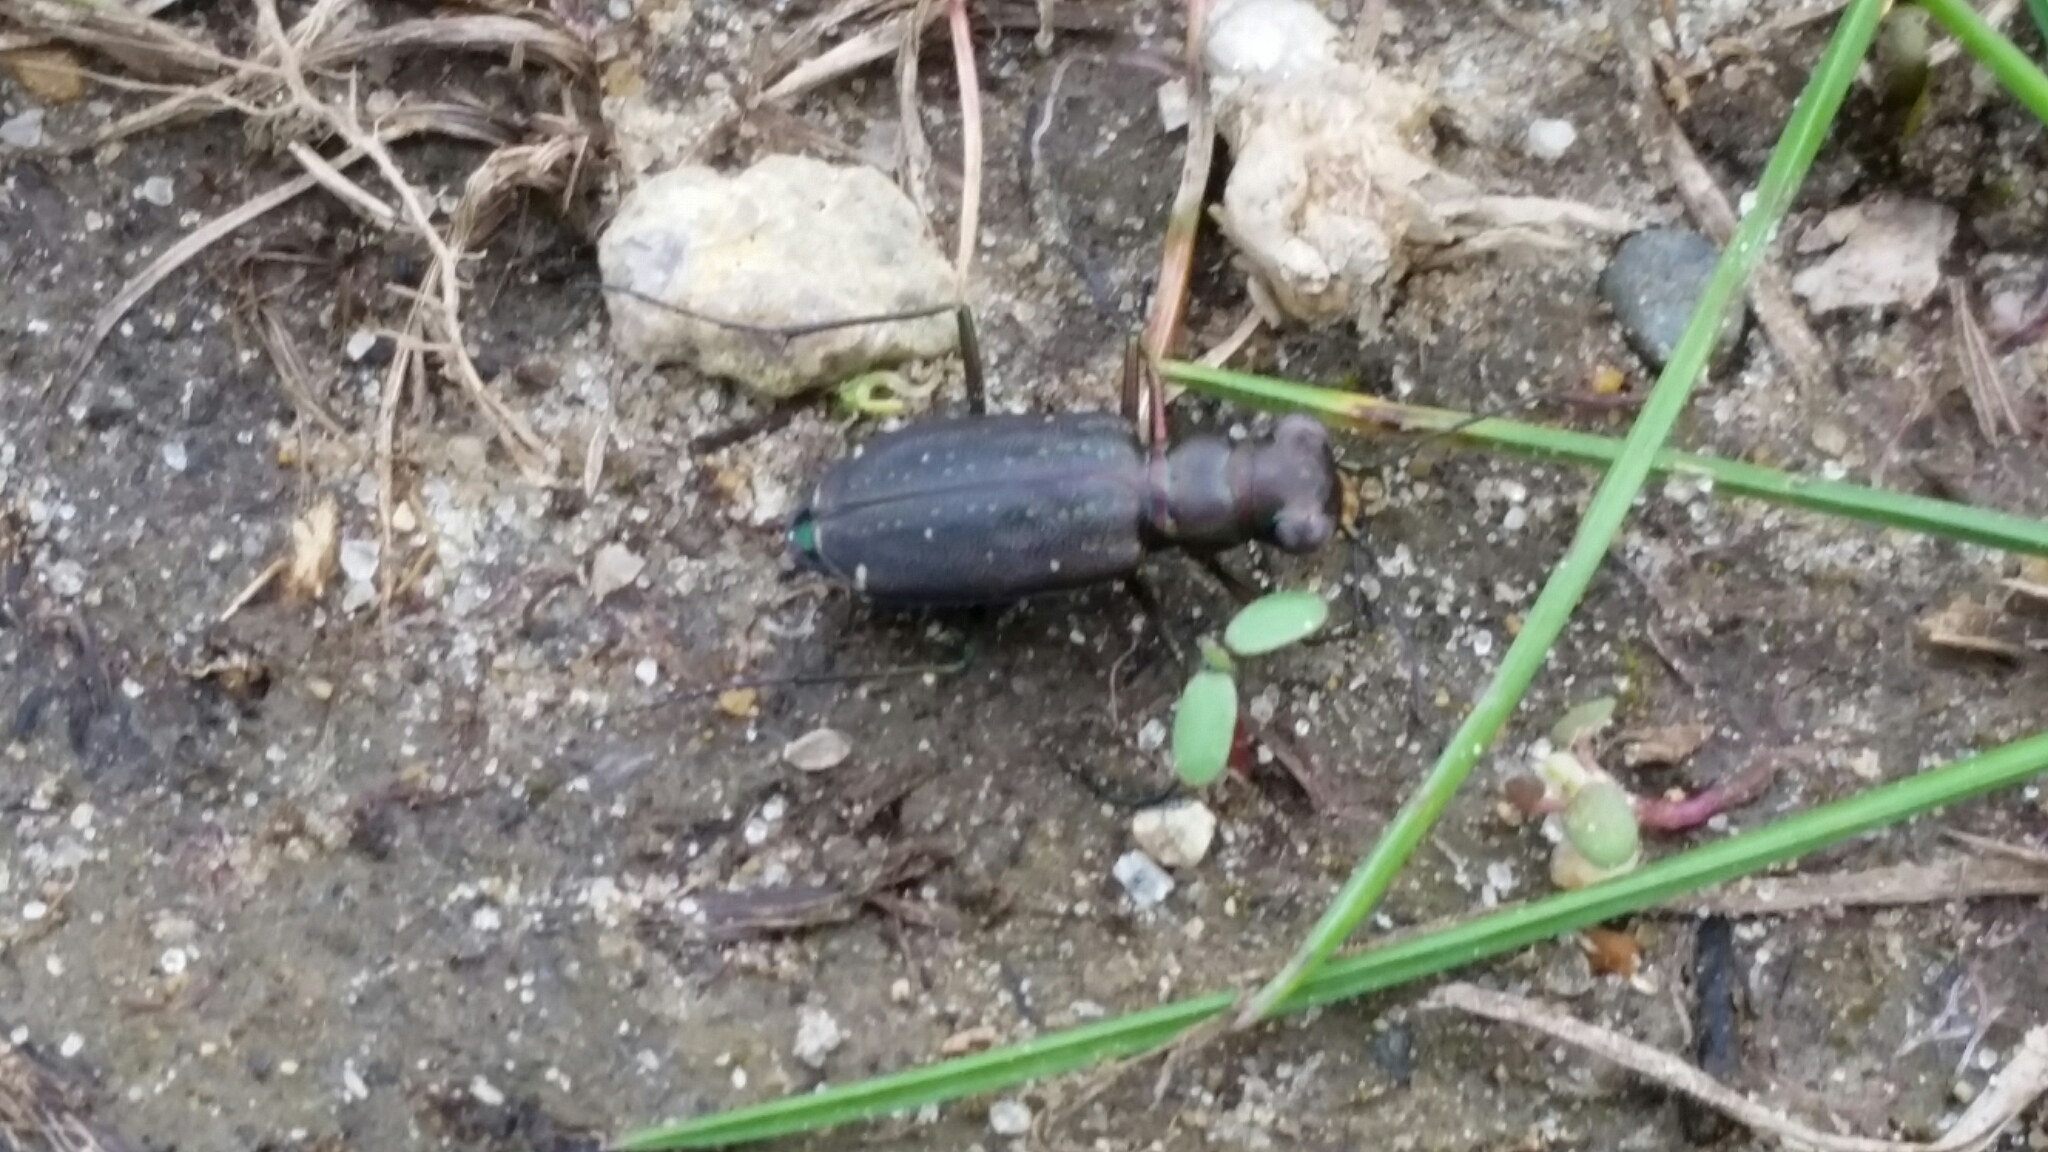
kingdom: Animalia
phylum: Arthropoda
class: Insecta
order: Coleoptera
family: Carabidae
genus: Cicindela
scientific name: Cicindela punctulata
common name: Punctured tiger beetle
